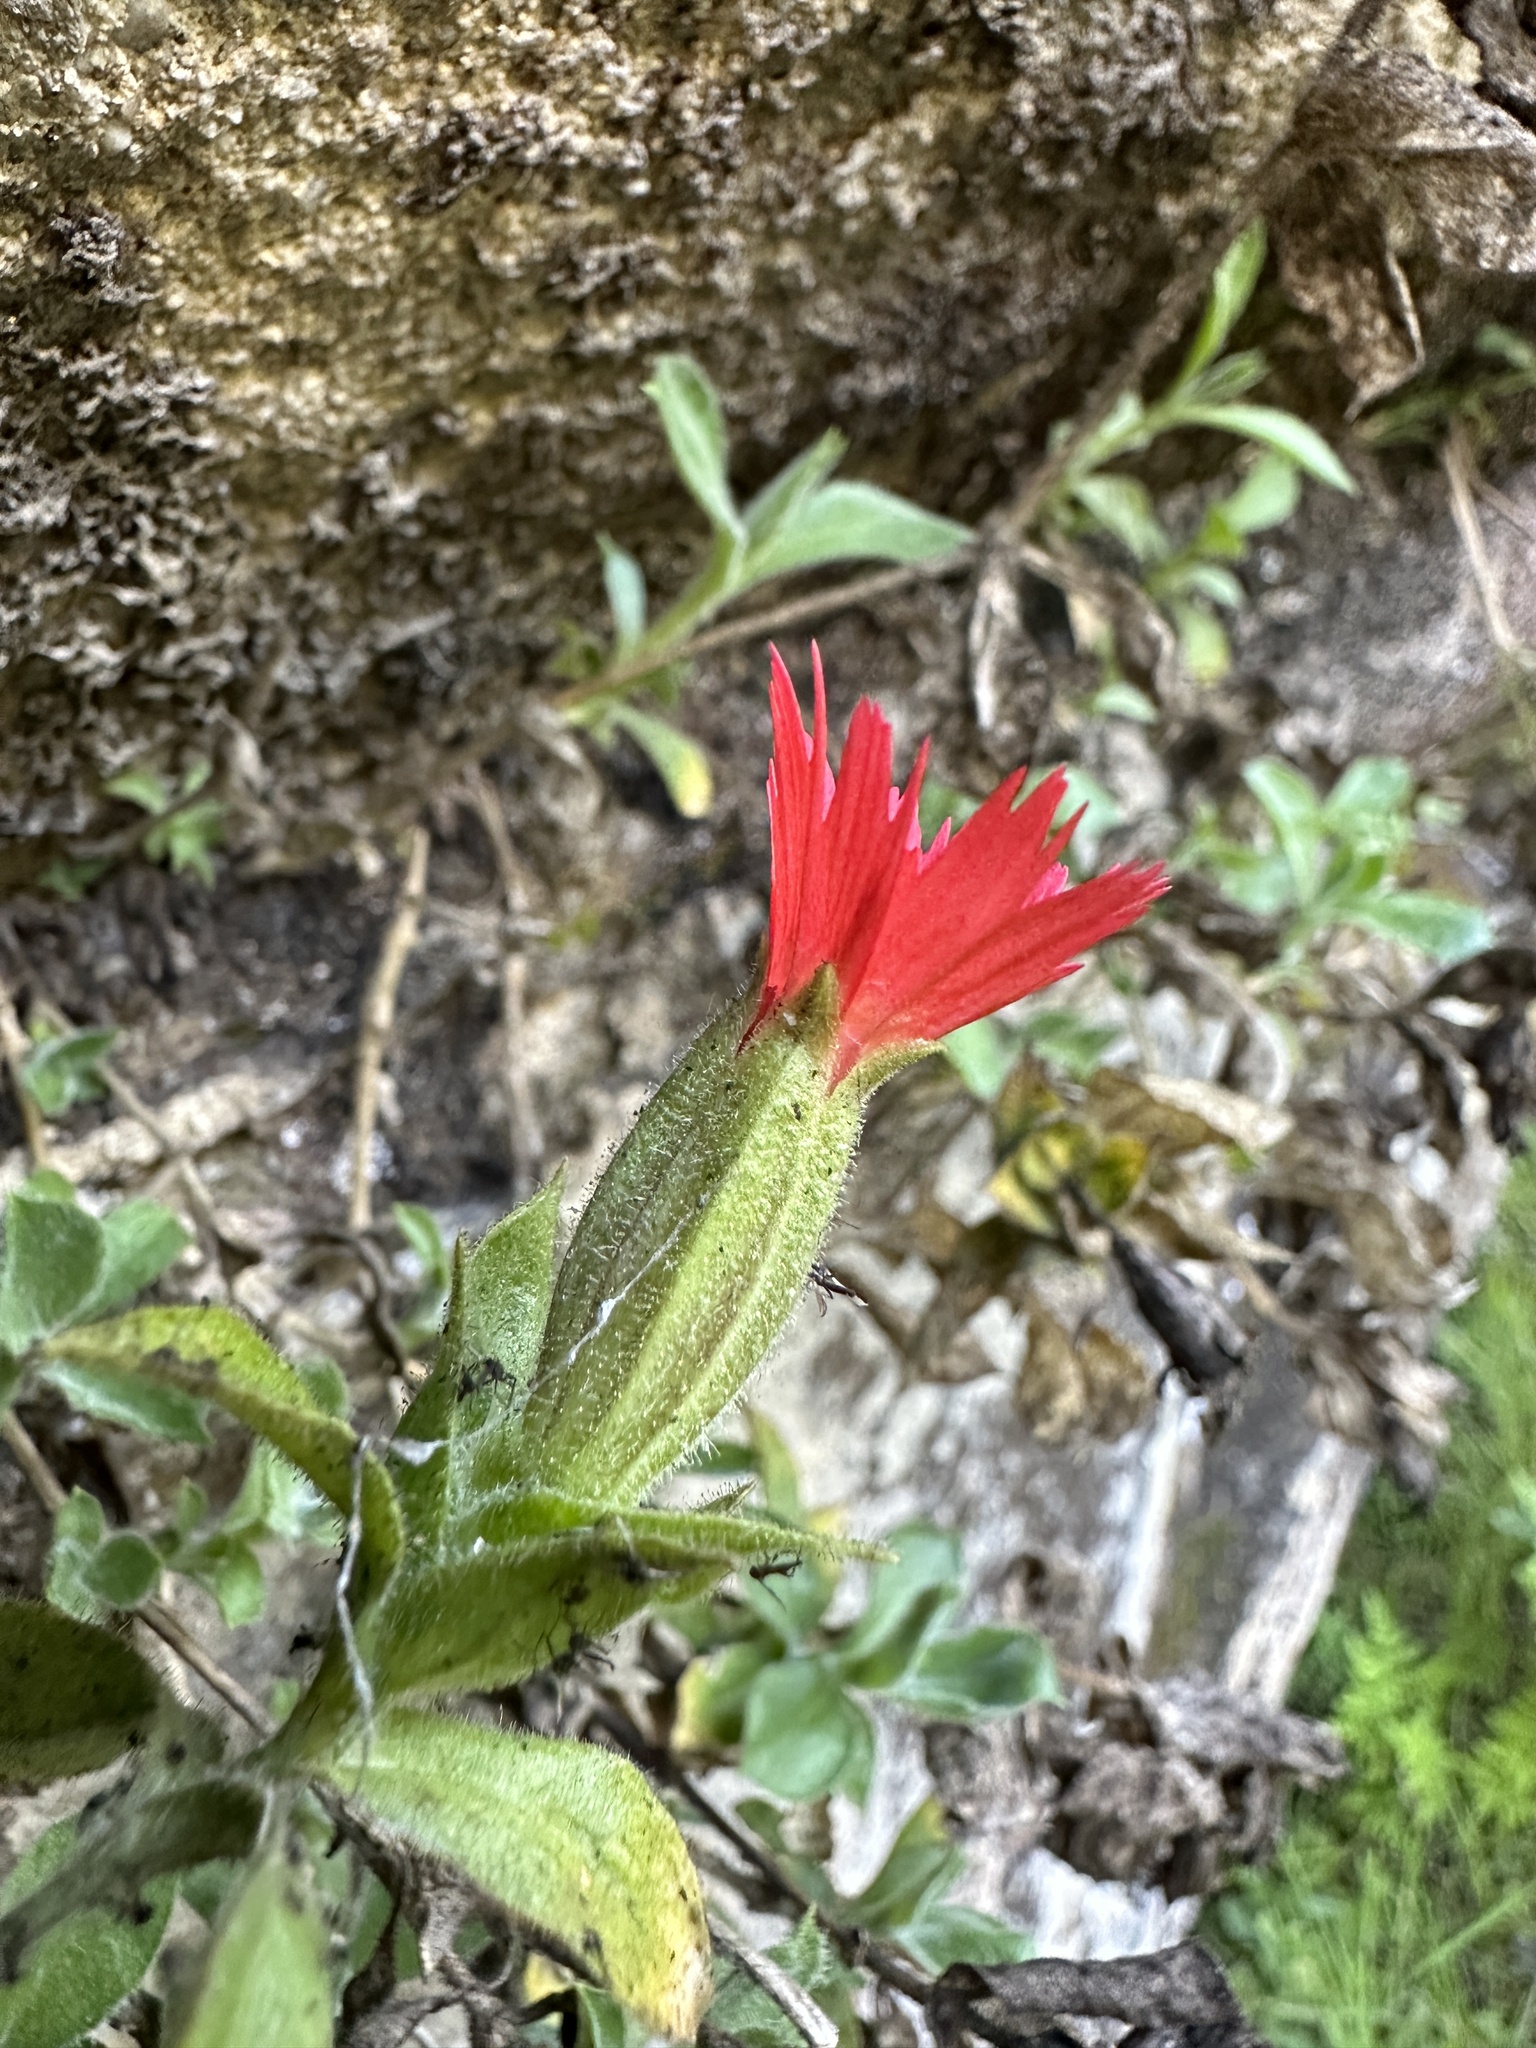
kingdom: Plantae
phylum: Tracheophyta
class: Magnoliopsida
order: Caryophyllales
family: Caryophyllaceae
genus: Silene
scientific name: Silene laciniata
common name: Indian-pink
